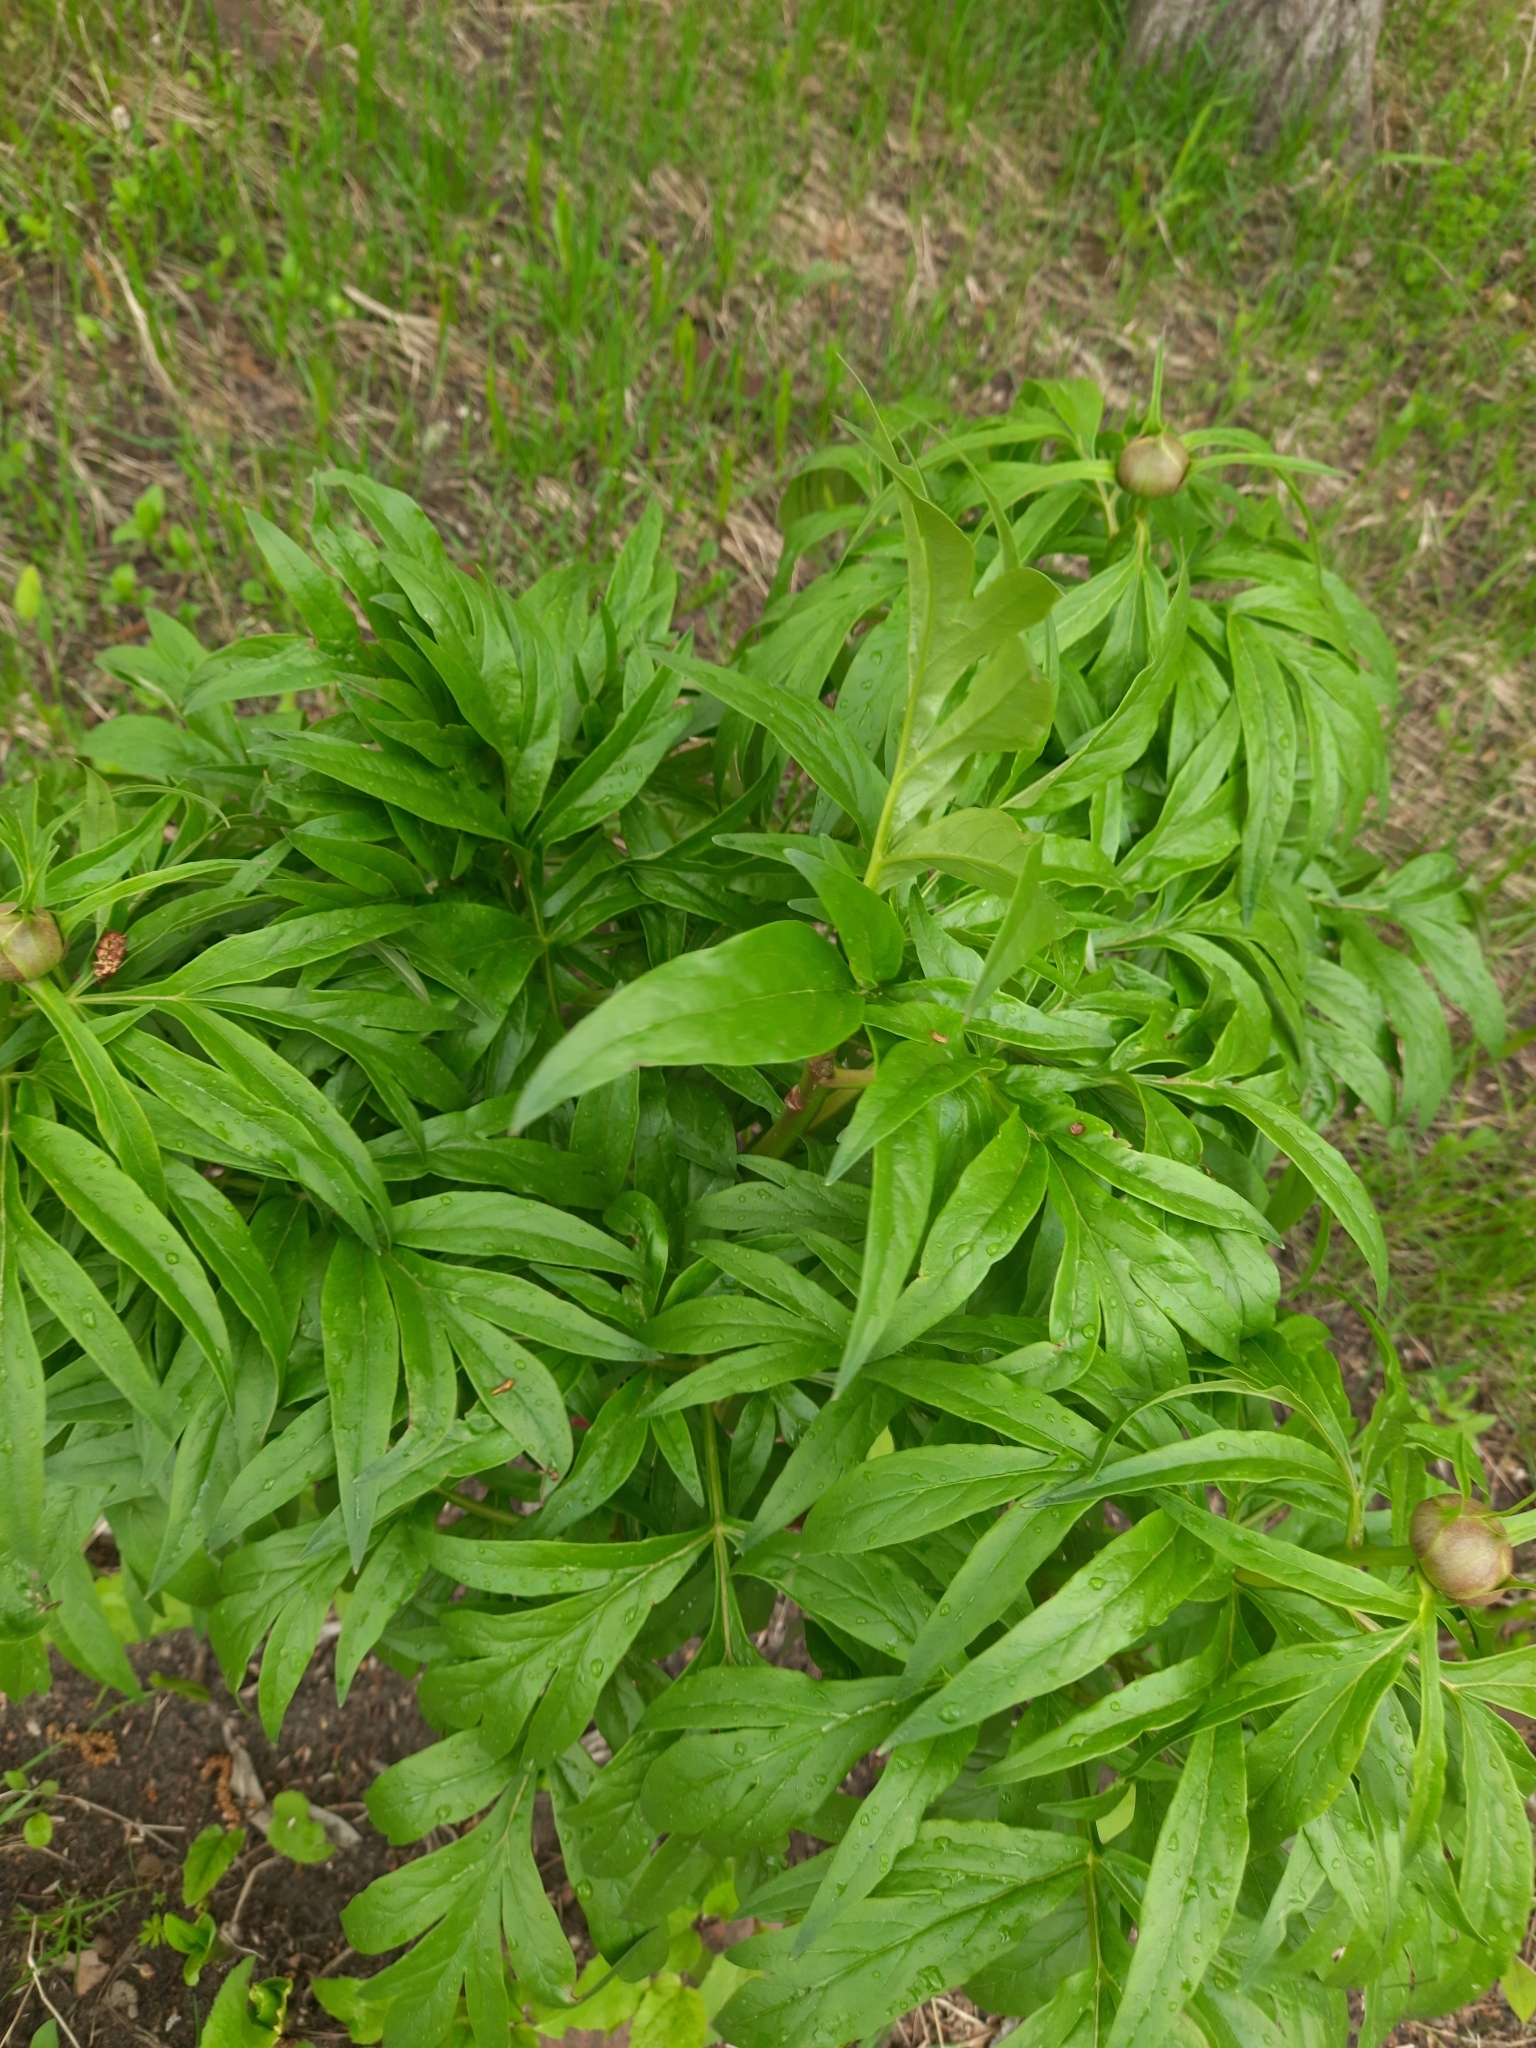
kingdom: Plantae
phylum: Tracheophyta
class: Magnoliopsida
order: Saxifragales
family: Paeoniaceae
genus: Paeonia
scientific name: Paeonia anomala
